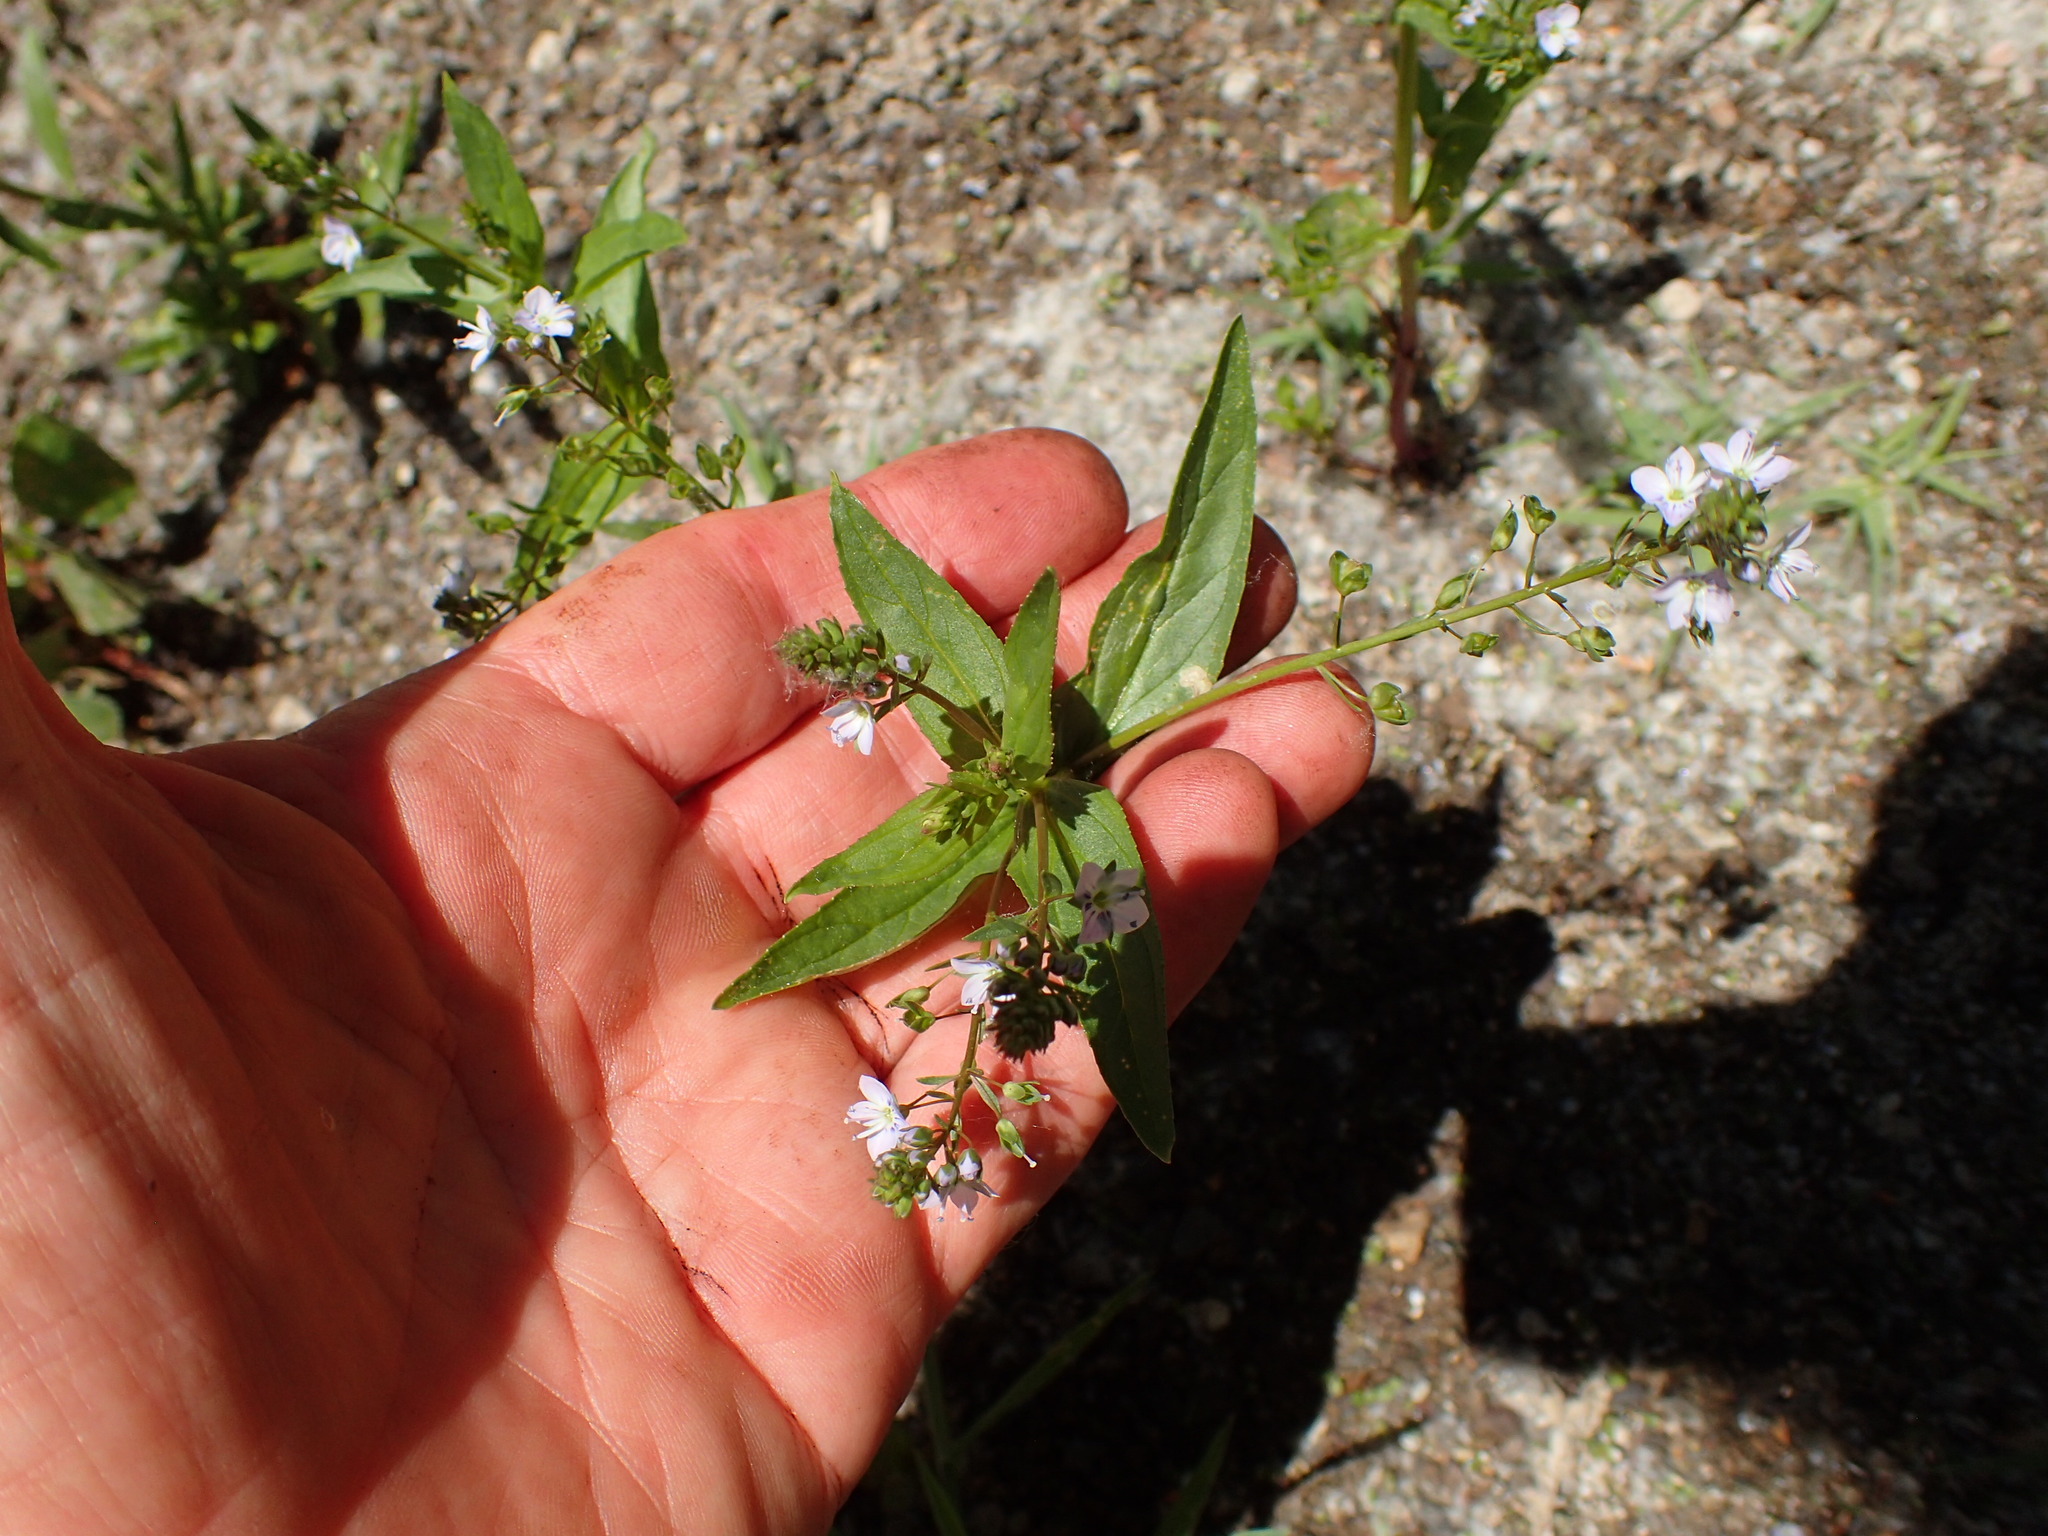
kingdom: Plantae
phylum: Tracheophyta
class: Magnoliopsida
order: Lamiales
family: Plantaginaceae
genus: Veronica
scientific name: Veronica anagallis-aquatica
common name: Water speedwell
